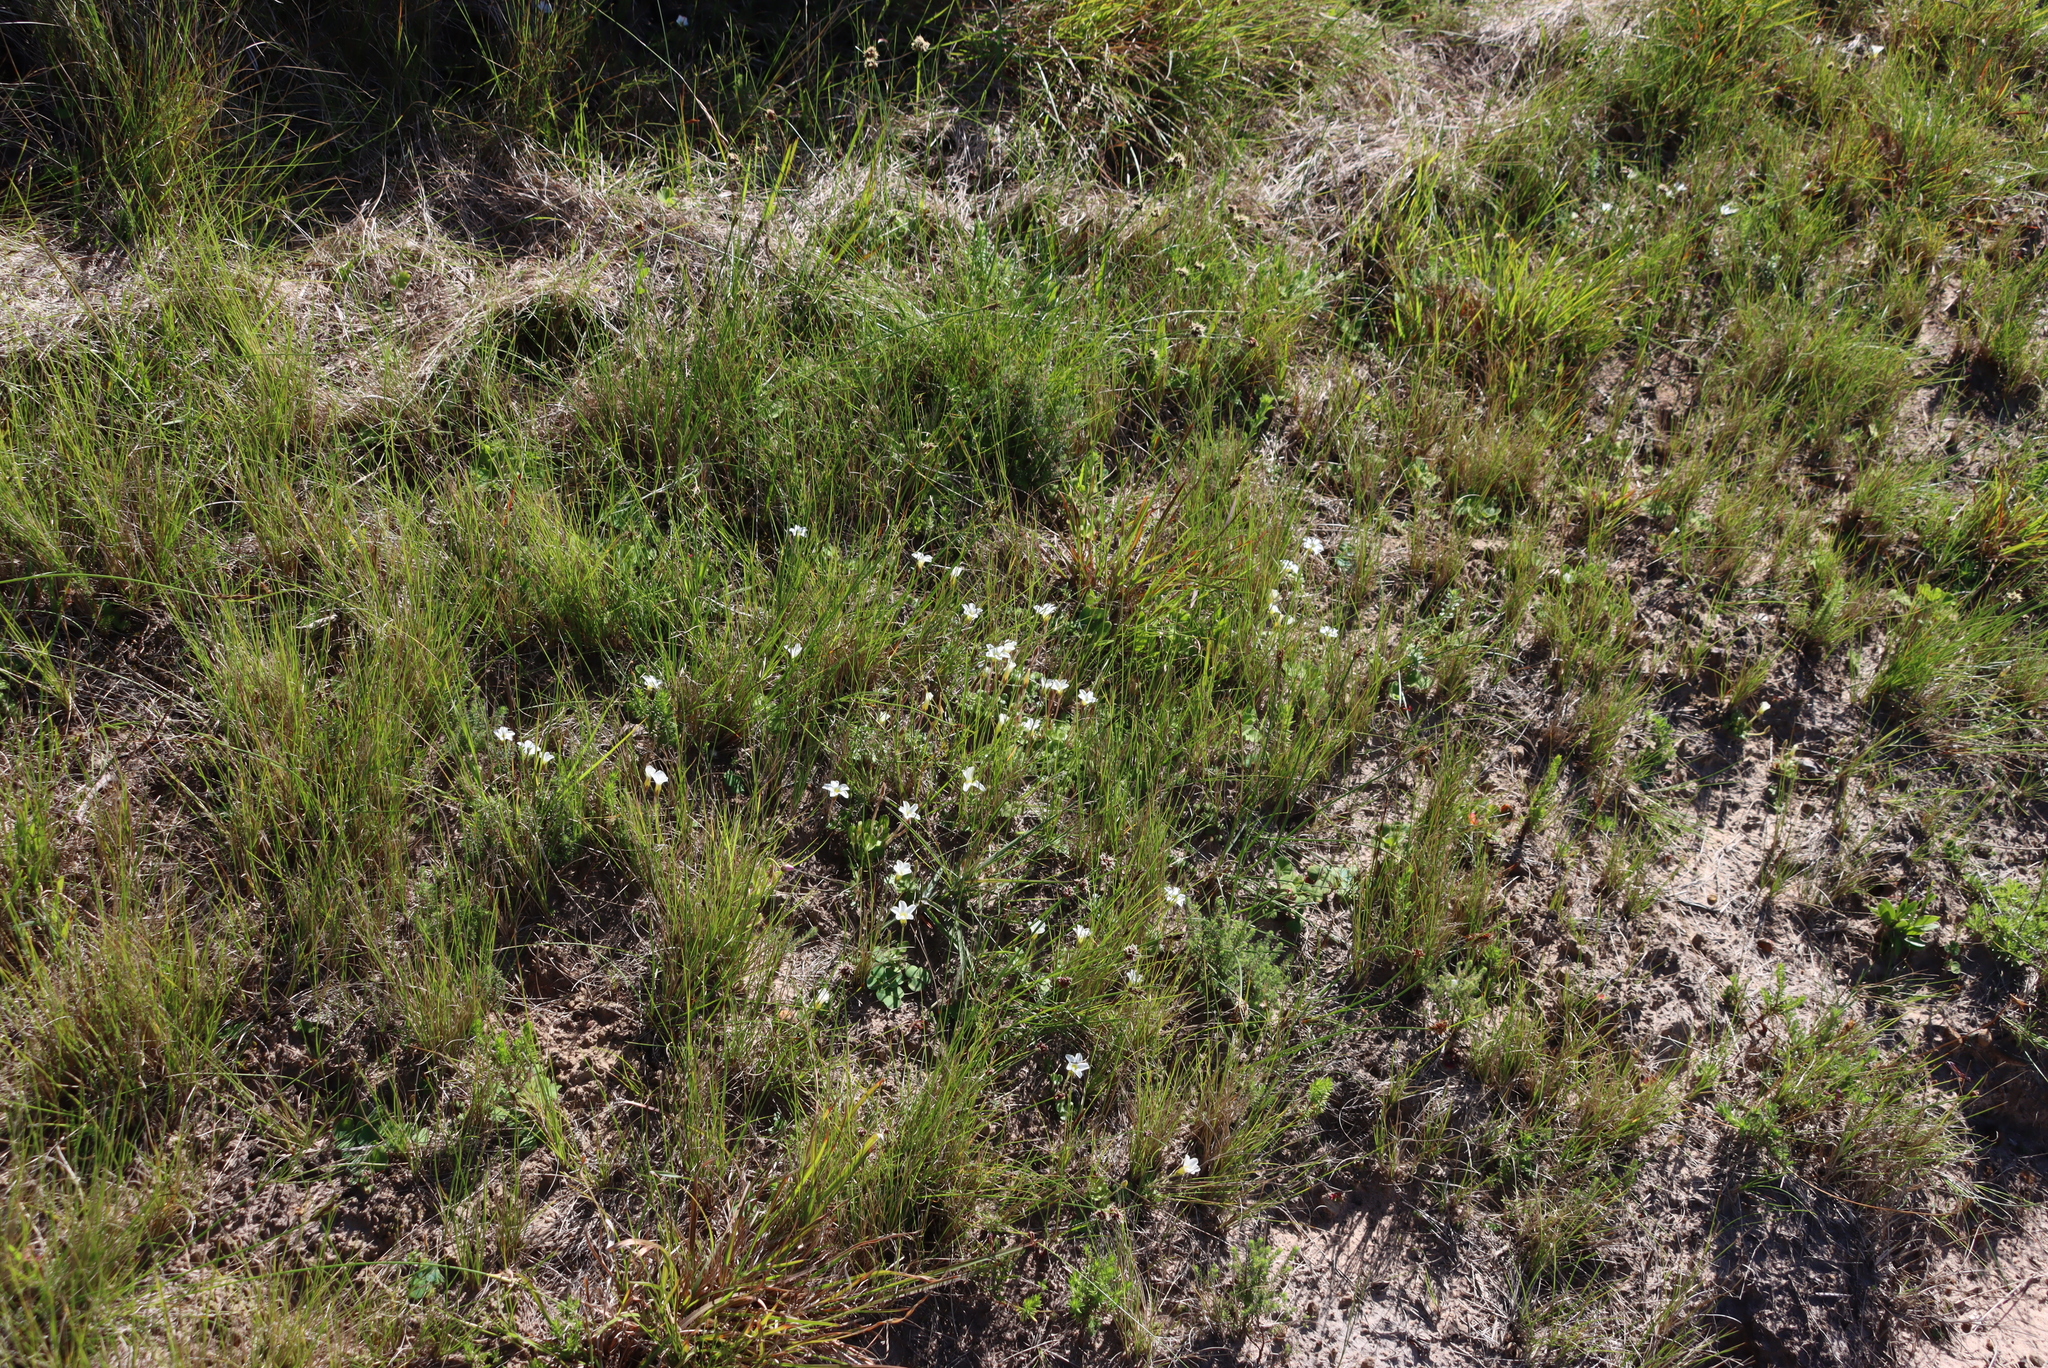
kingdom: Plantae
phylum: Tracheophyta
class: Magnoliopsida
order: Oxalidales
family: Oxalidaceae
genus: Oxalis
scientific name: Oxalis algoensis
